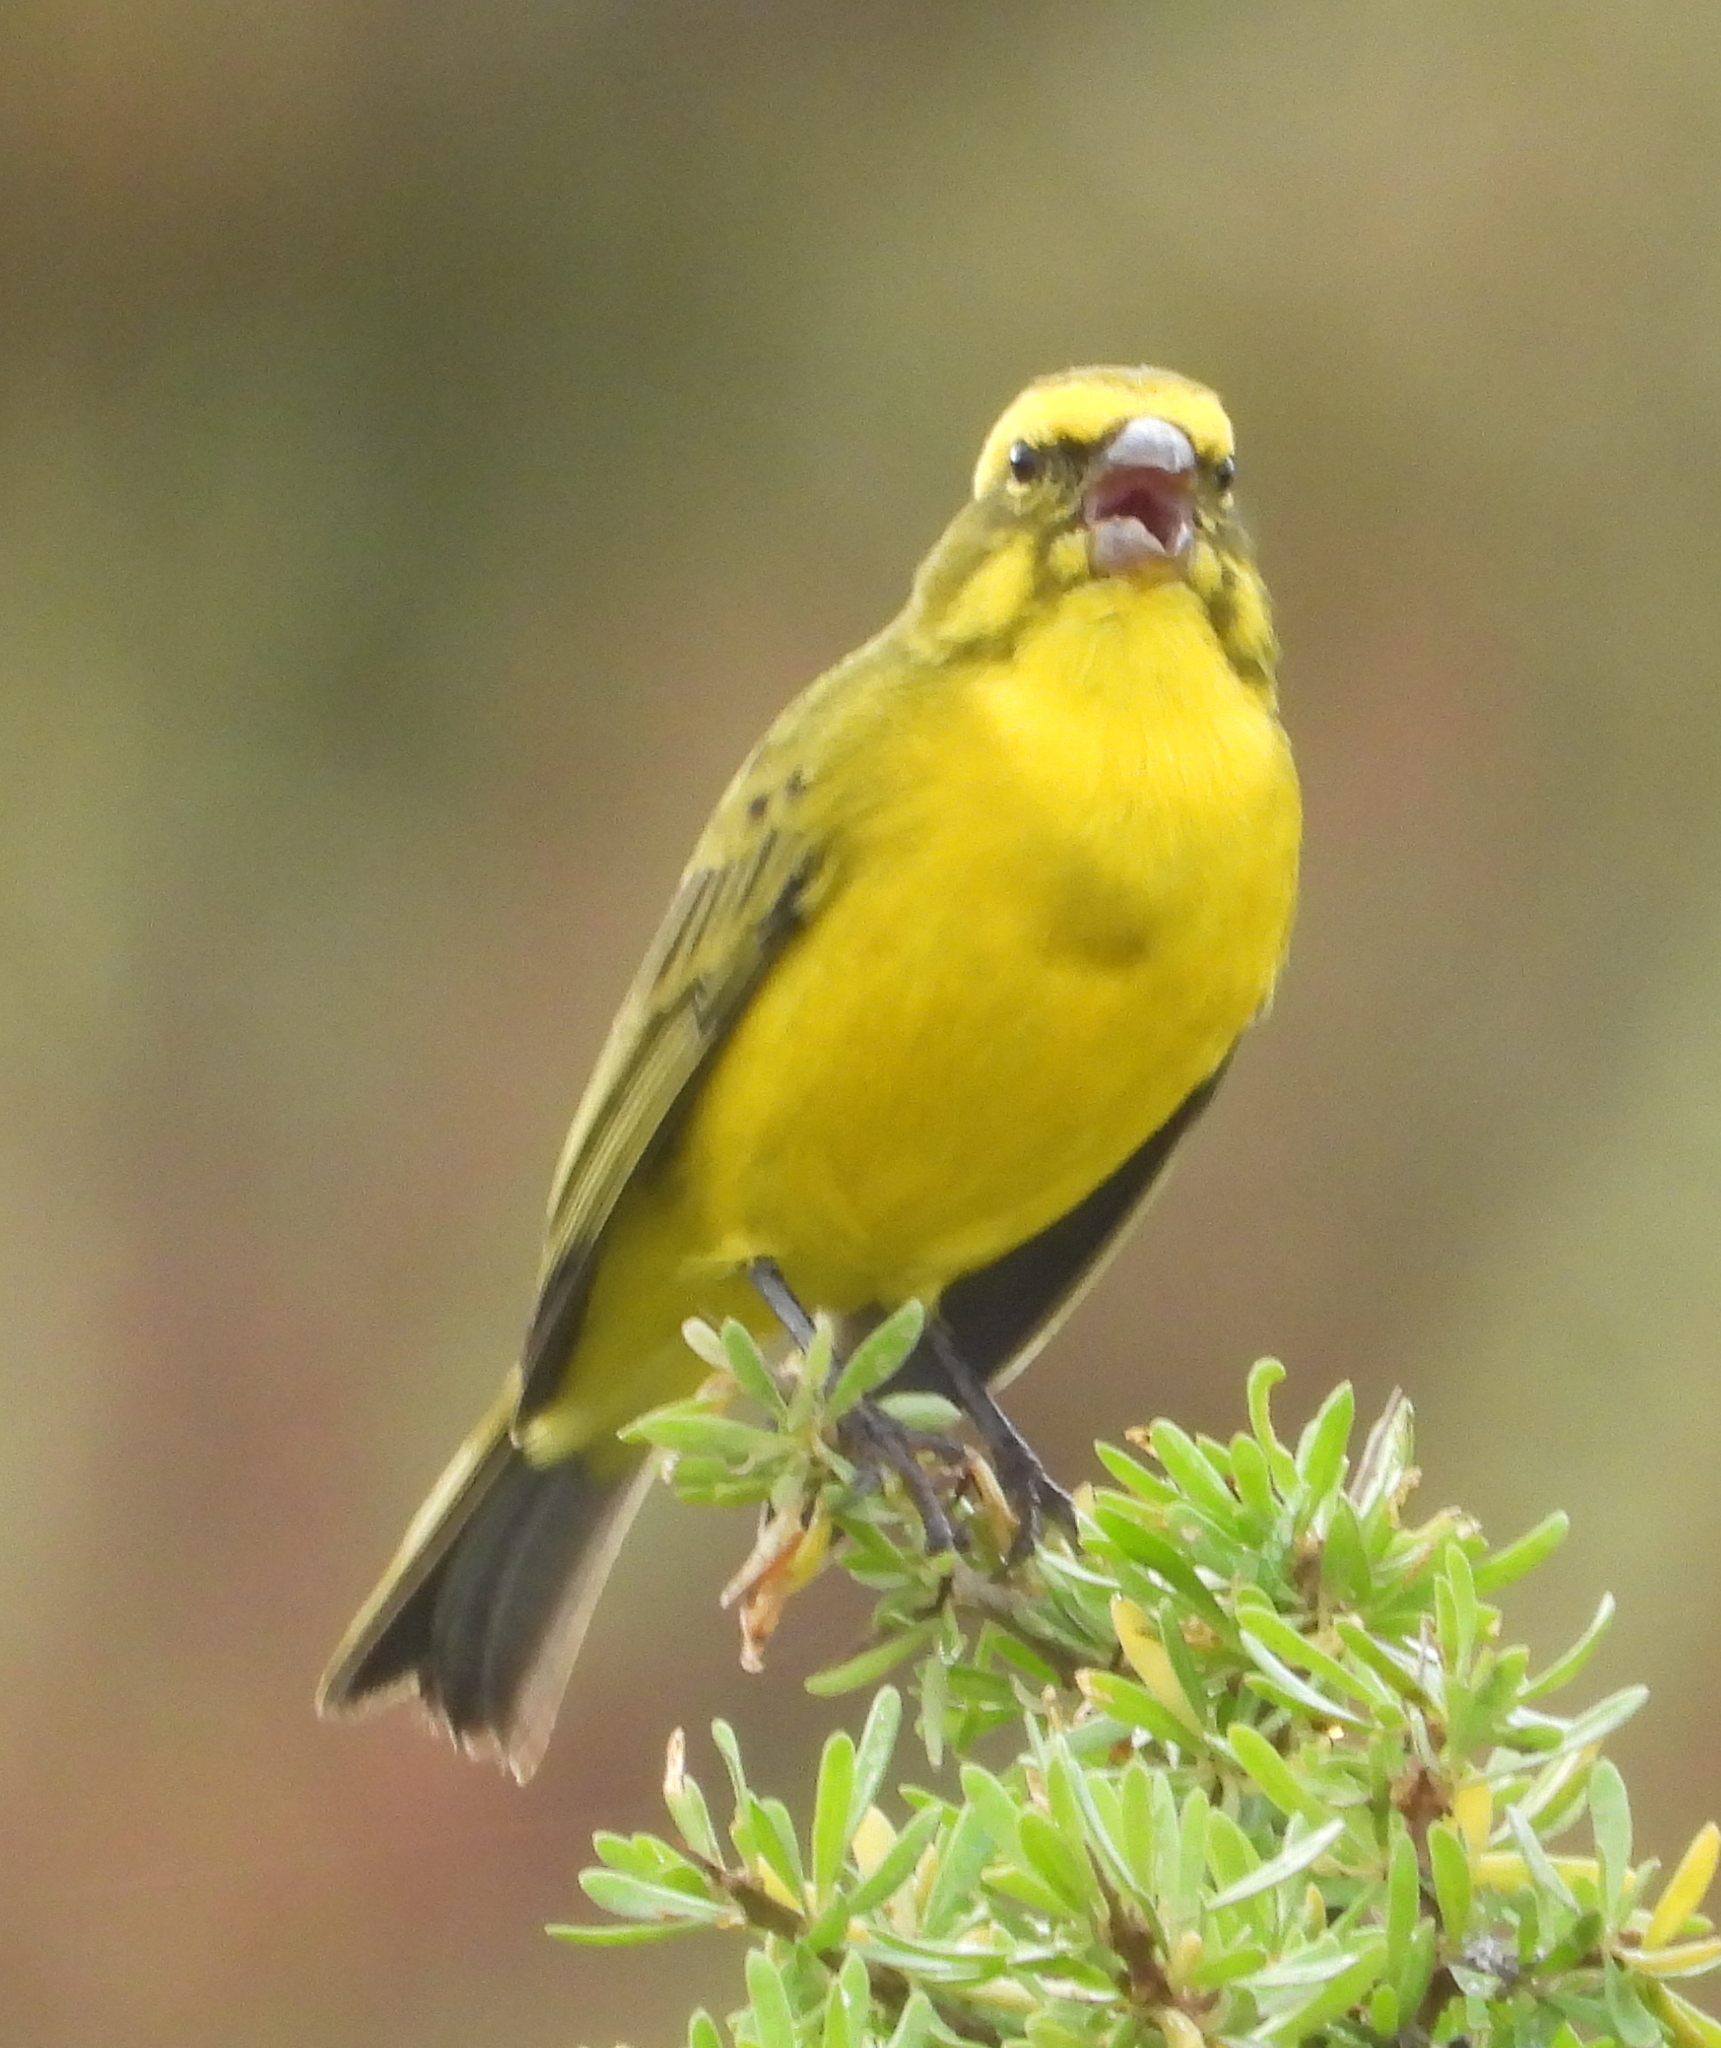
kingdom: Animalia
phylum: Chordata
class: Aves
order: Passeriformes
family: Fringillidae
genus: Crithagra
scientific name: Crithagra flaviventris
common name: Yellow canary
